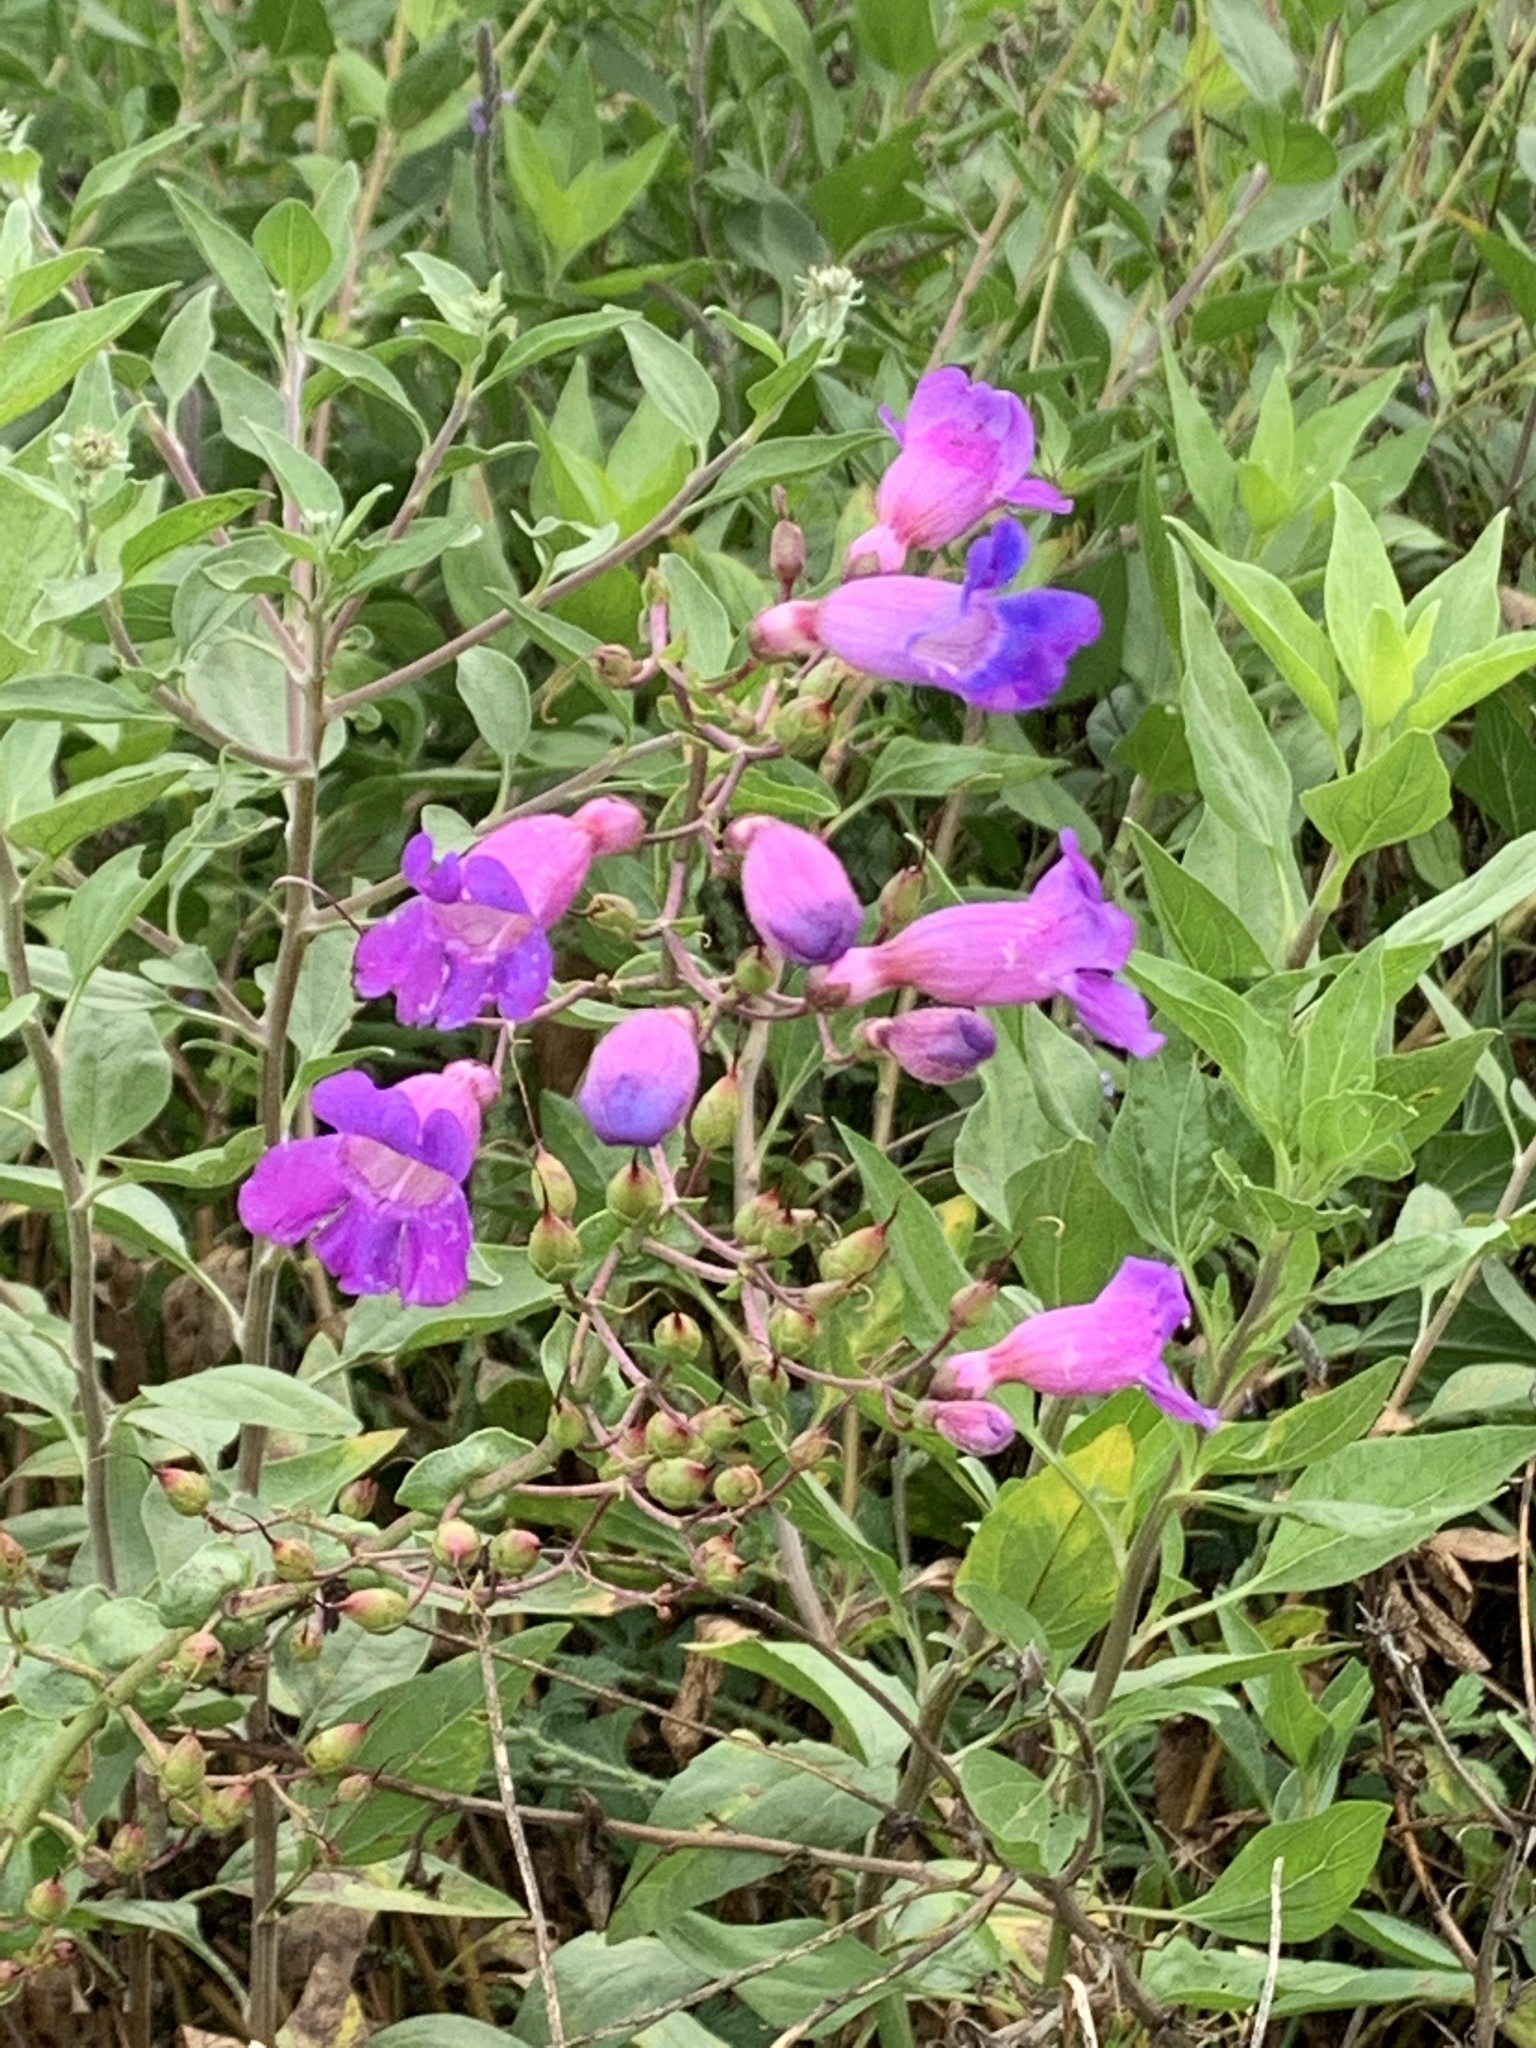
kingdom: Plantae
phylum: Tracheophyta
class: Magnoliopsida
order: Lamiales
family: Plantaginaceae
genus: Penstemon
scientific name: Penstemon spectabilis
